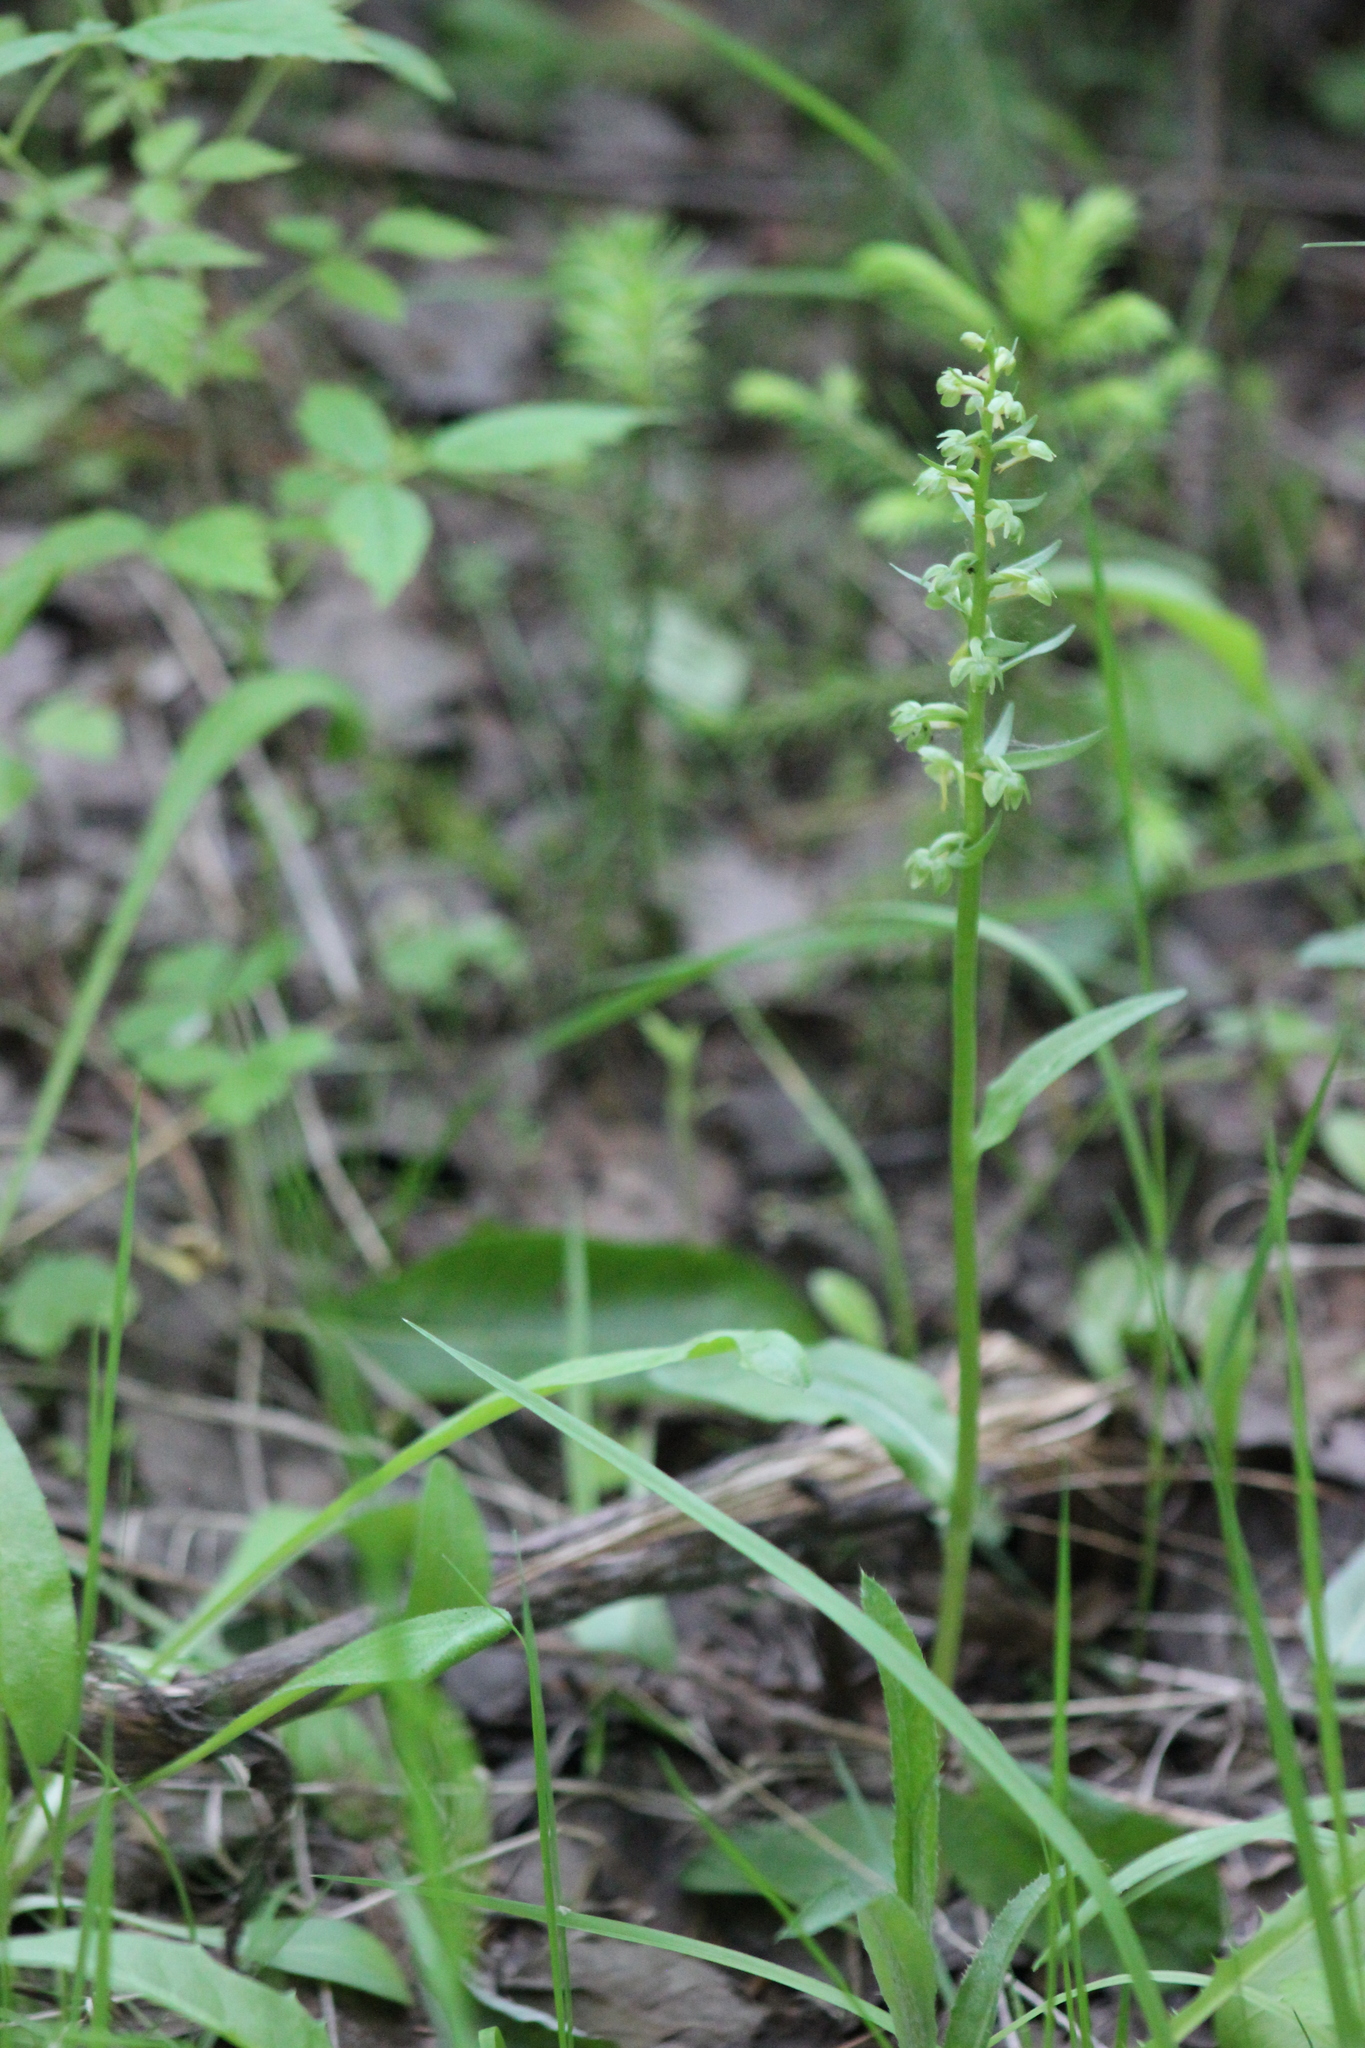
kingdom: Plantae
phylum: Tracheophyta
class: Liliopsida
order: Asparagales
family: Orchidaceae
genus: Dactylorhiza
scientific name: Dactylorhiza viridis
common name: Longbract frog orchid
